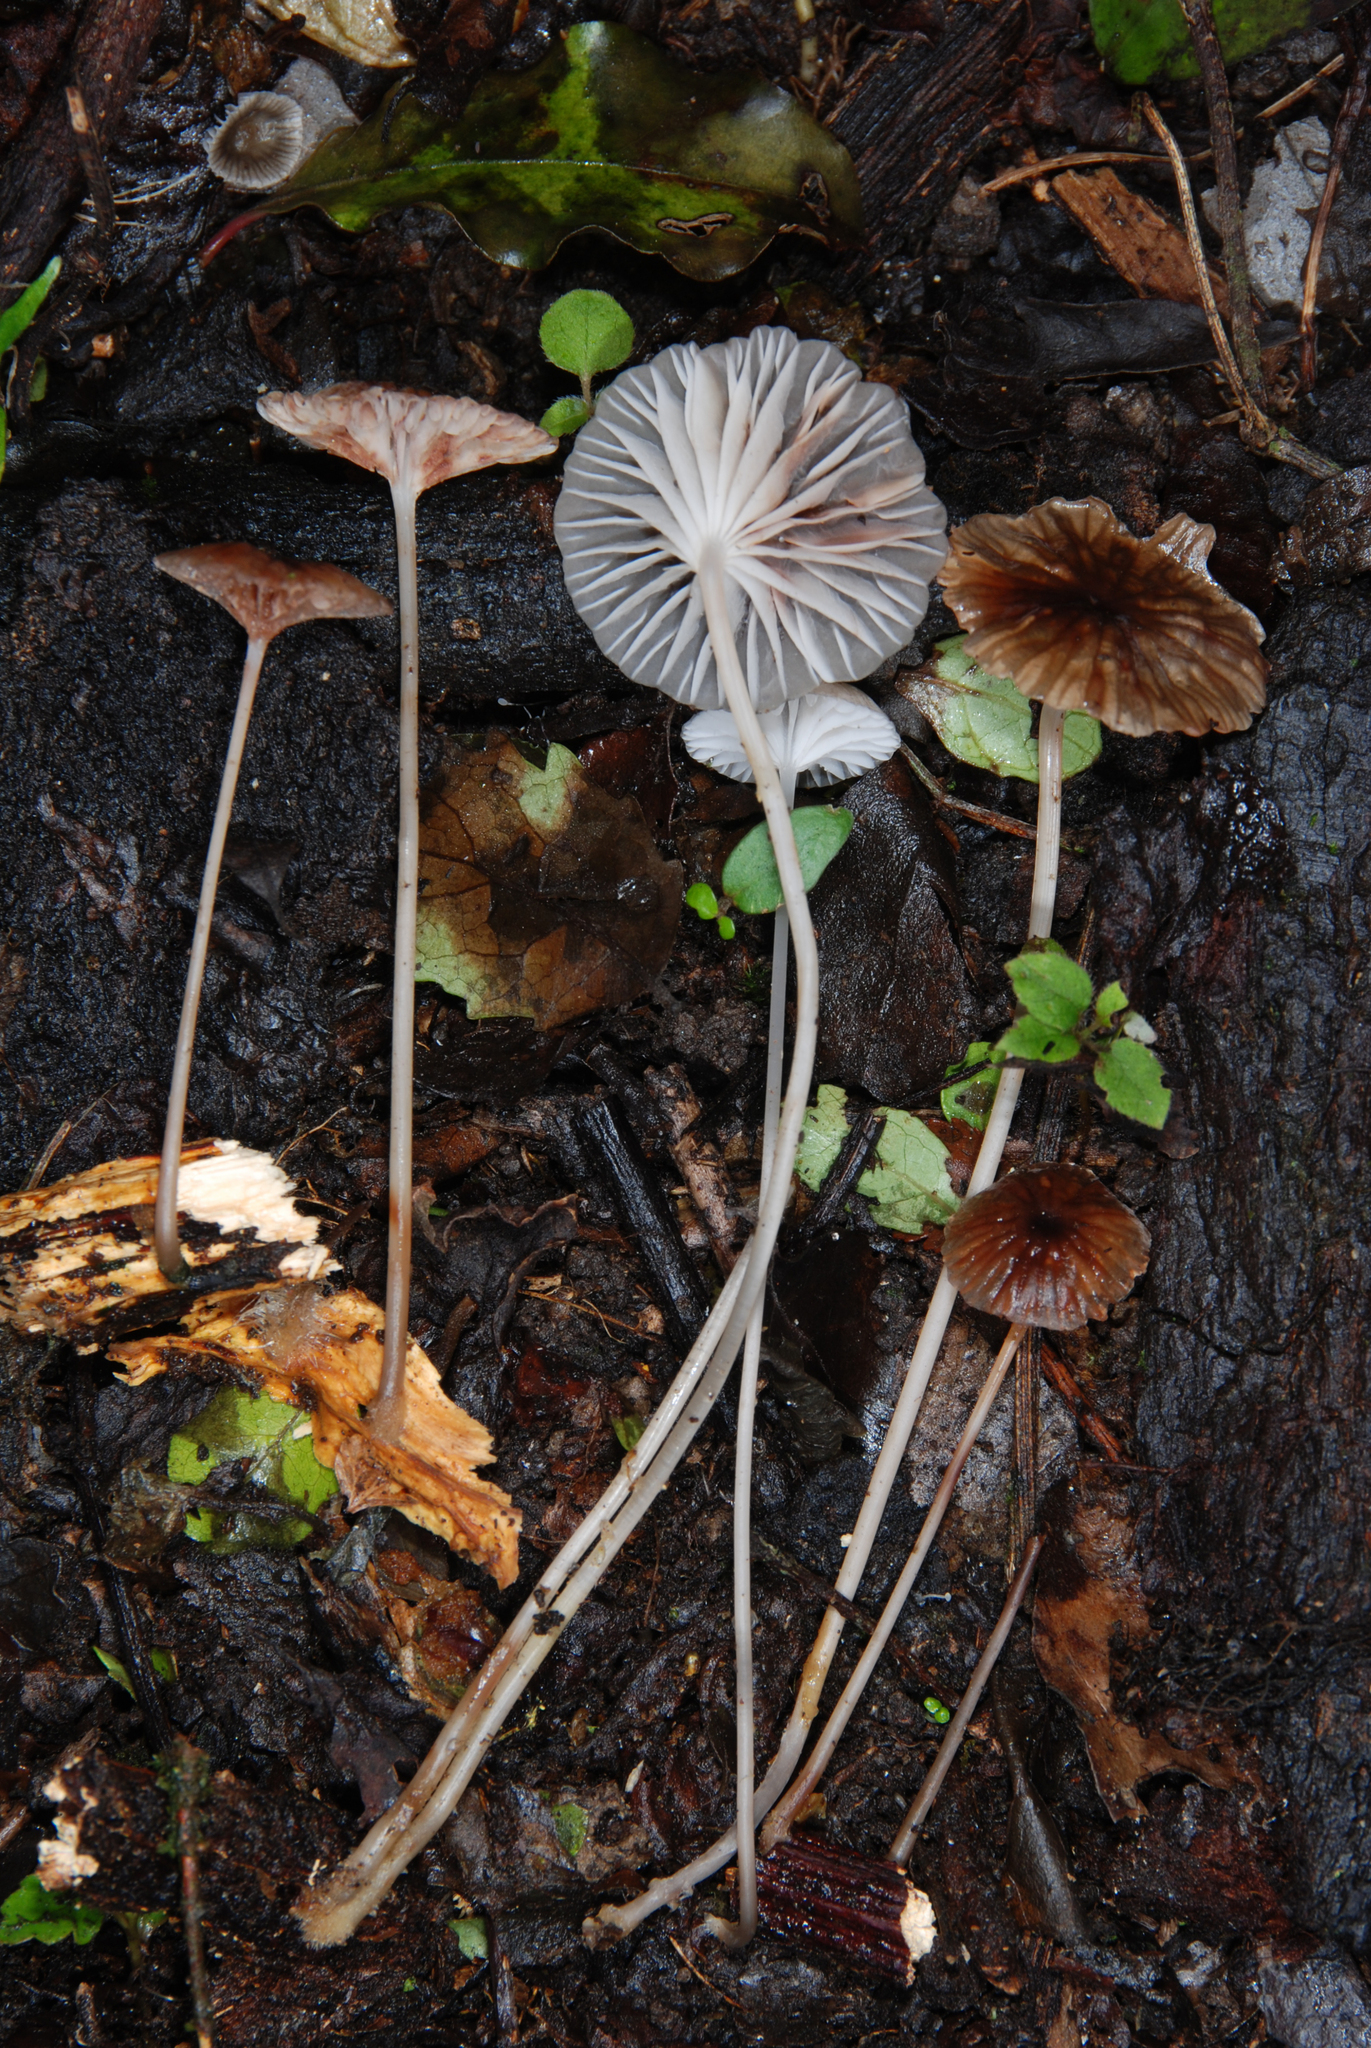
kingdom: Fungi
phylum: Basidiomycota
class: Agaricomycetes
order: Agaricales
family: Mycenaceae
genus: Mycena
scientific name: Mycena helminthobasis
